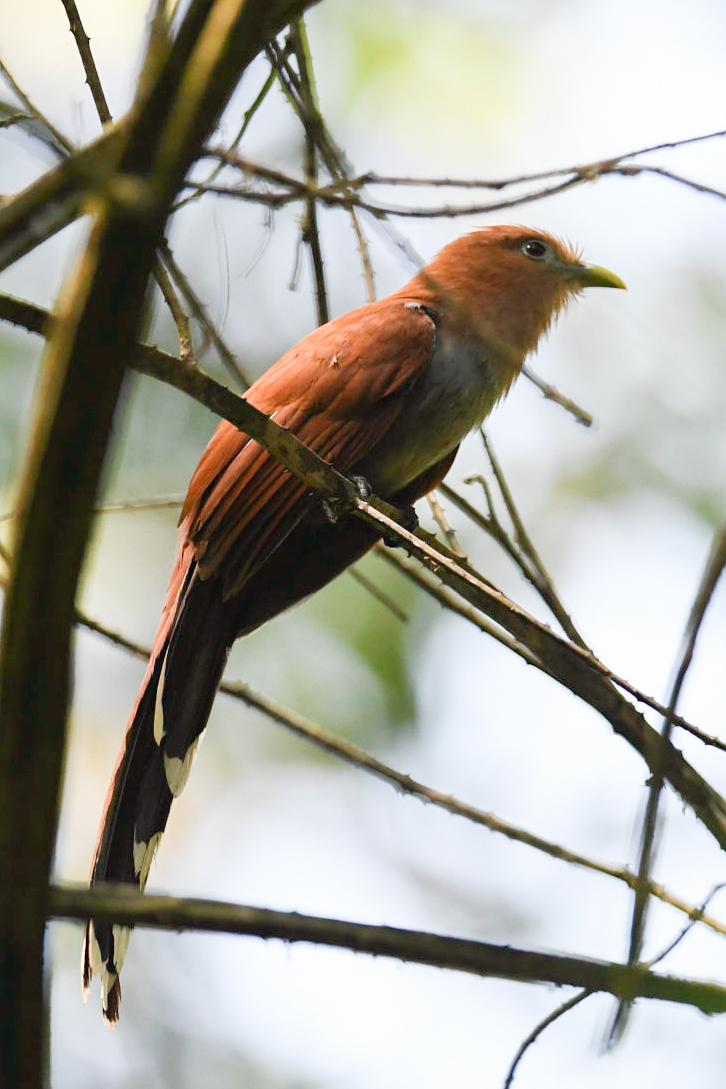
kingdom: Animalia
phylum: Chordata
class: Aves
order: Cuculiformes
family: Cuculidae
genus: Piaya
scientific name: Piaya cayana
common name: Squirrel cuckoo
